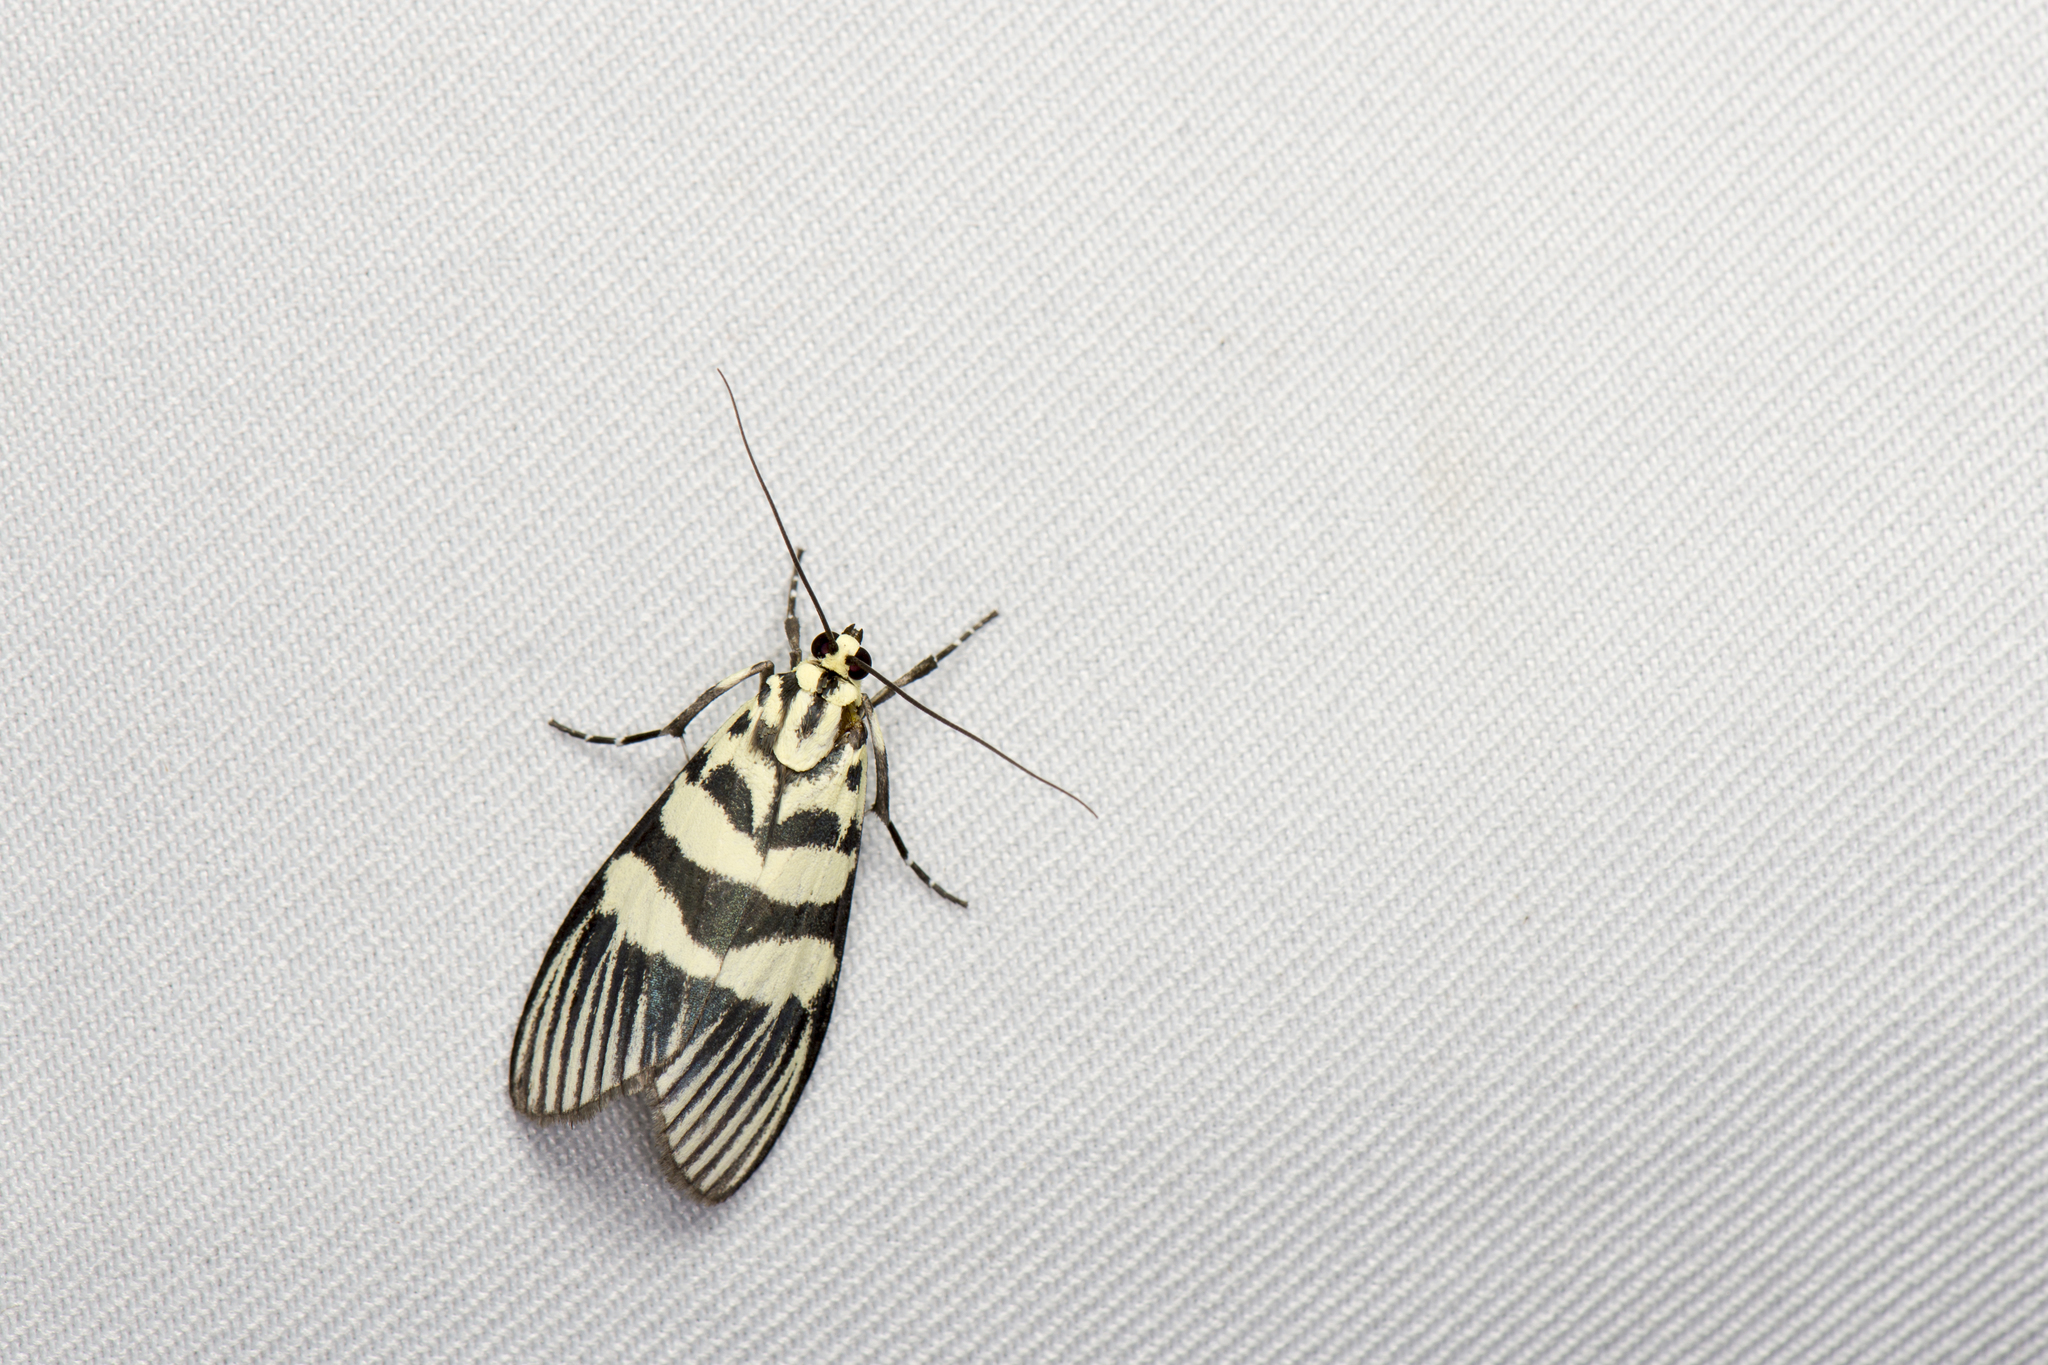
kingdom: Animalia
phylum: Arthropoda
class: Insecta
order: Lepidoptera
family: Crambidae
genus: Heortia
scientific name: Heortia vitessoides
